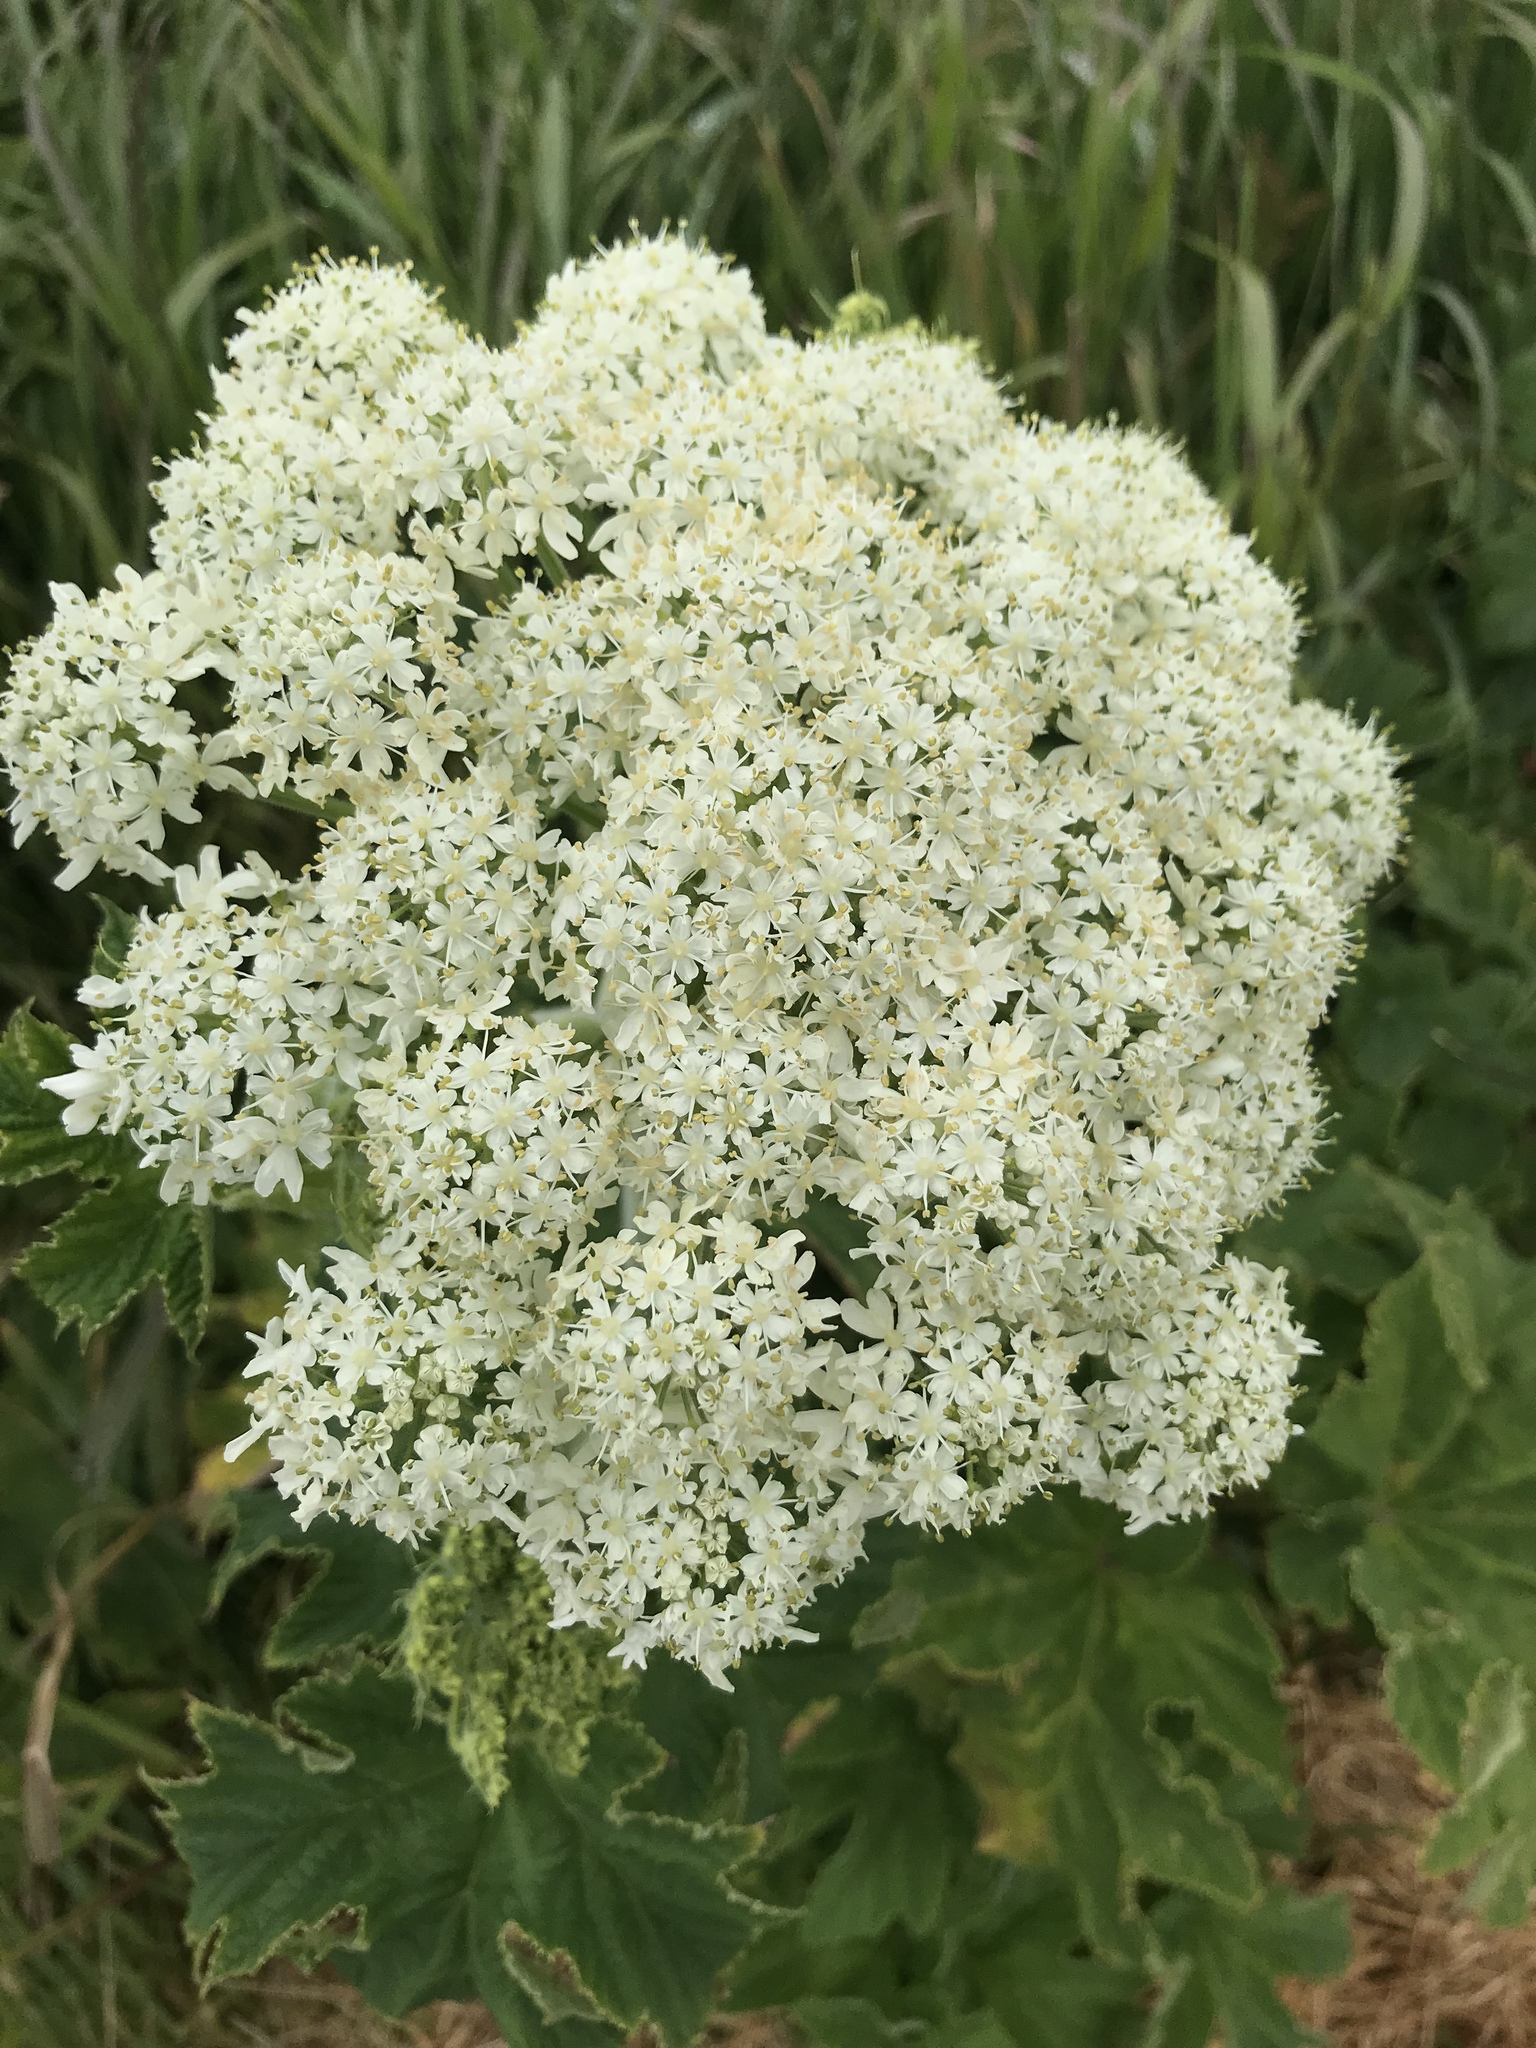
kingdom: Plantae
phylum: Tracheophyta
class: Magnoliopsida
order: Apiales
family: Apiaceae
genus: Heracleum
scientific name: Heracleum maximum
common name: American cow parsnip
